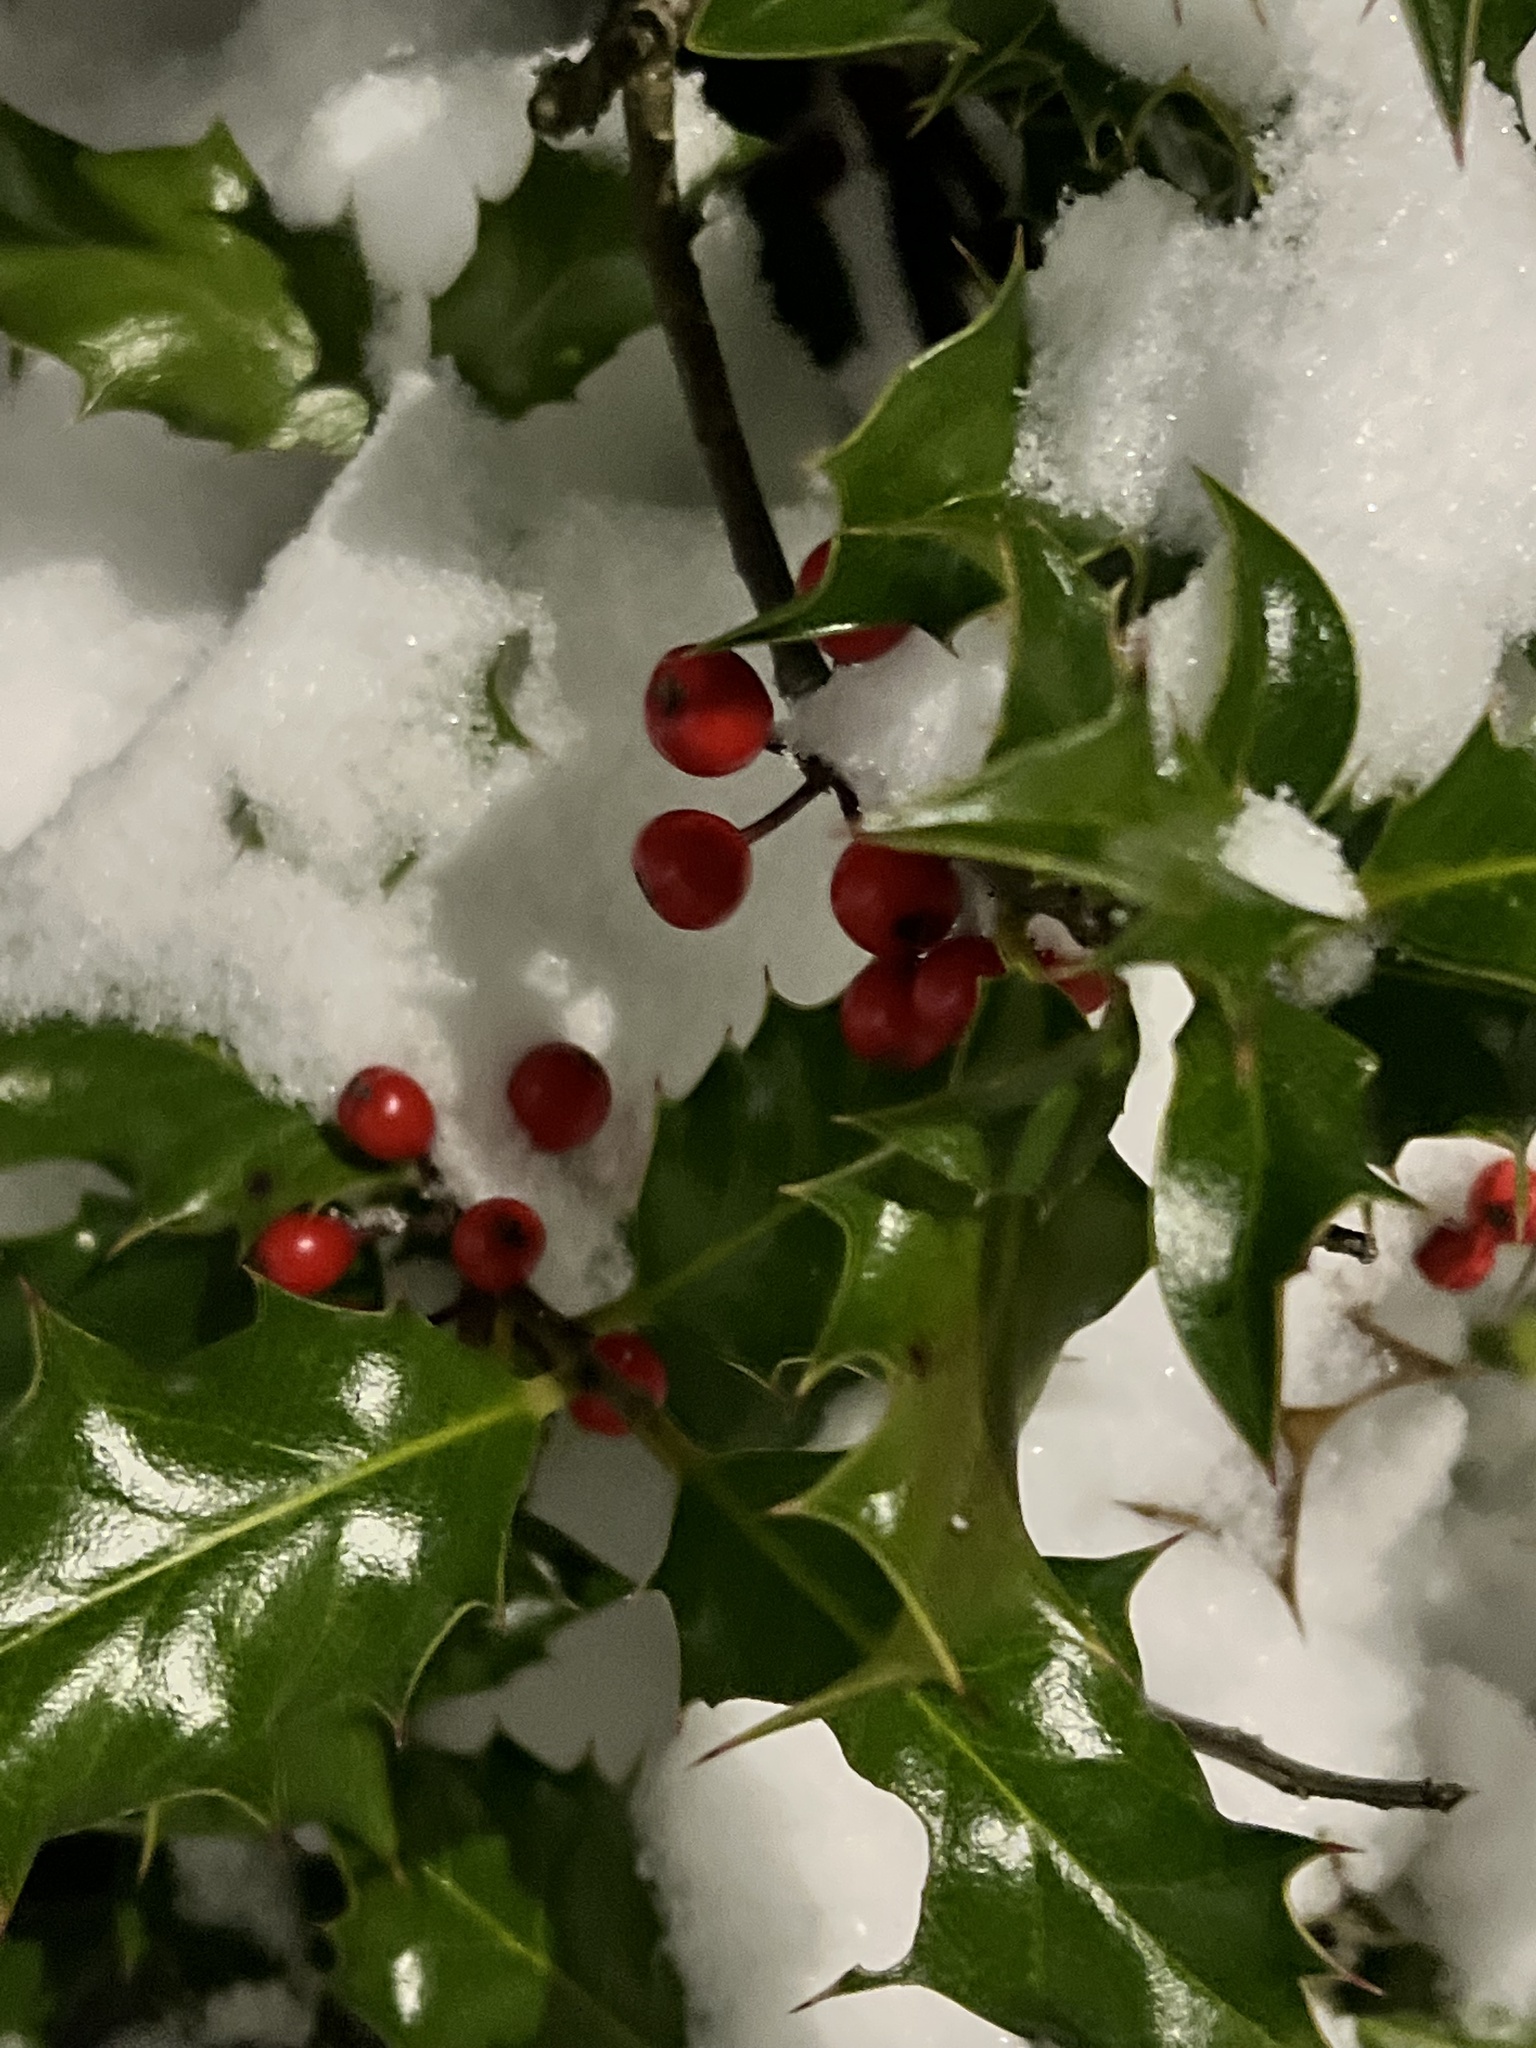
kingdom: Plantae
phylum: Tracheophyta
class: Magnoliopsida
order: Aquifoliales
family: Aquifoliaceae
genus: Ilex
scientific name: Ilex aquifolium
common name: English holly
